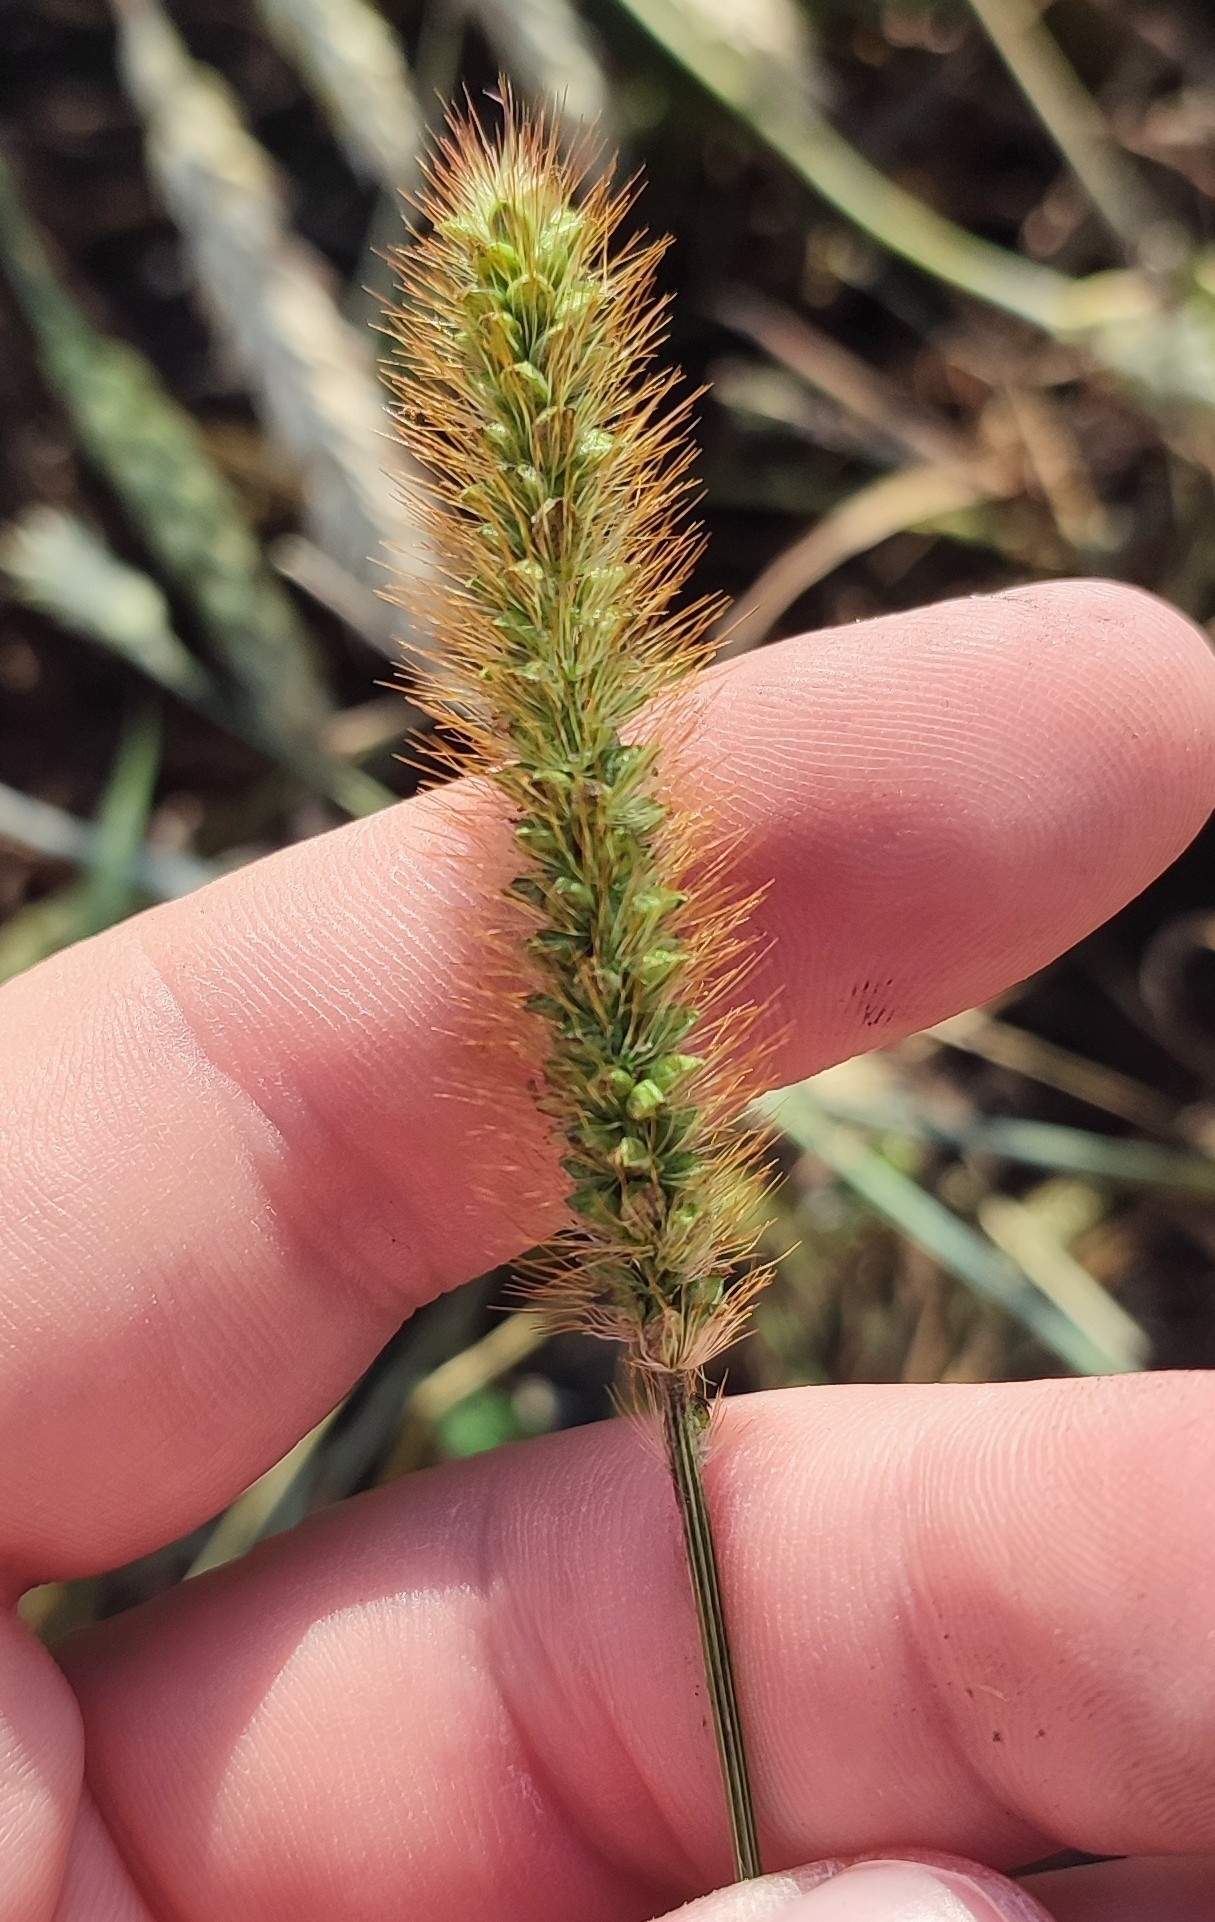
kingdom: Plantae
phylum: Tracheophyta
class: Liliopsida
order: Poales
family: Poaceae
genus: Setaria
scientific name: Setaria pumila
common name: Yellow bristle-grass
